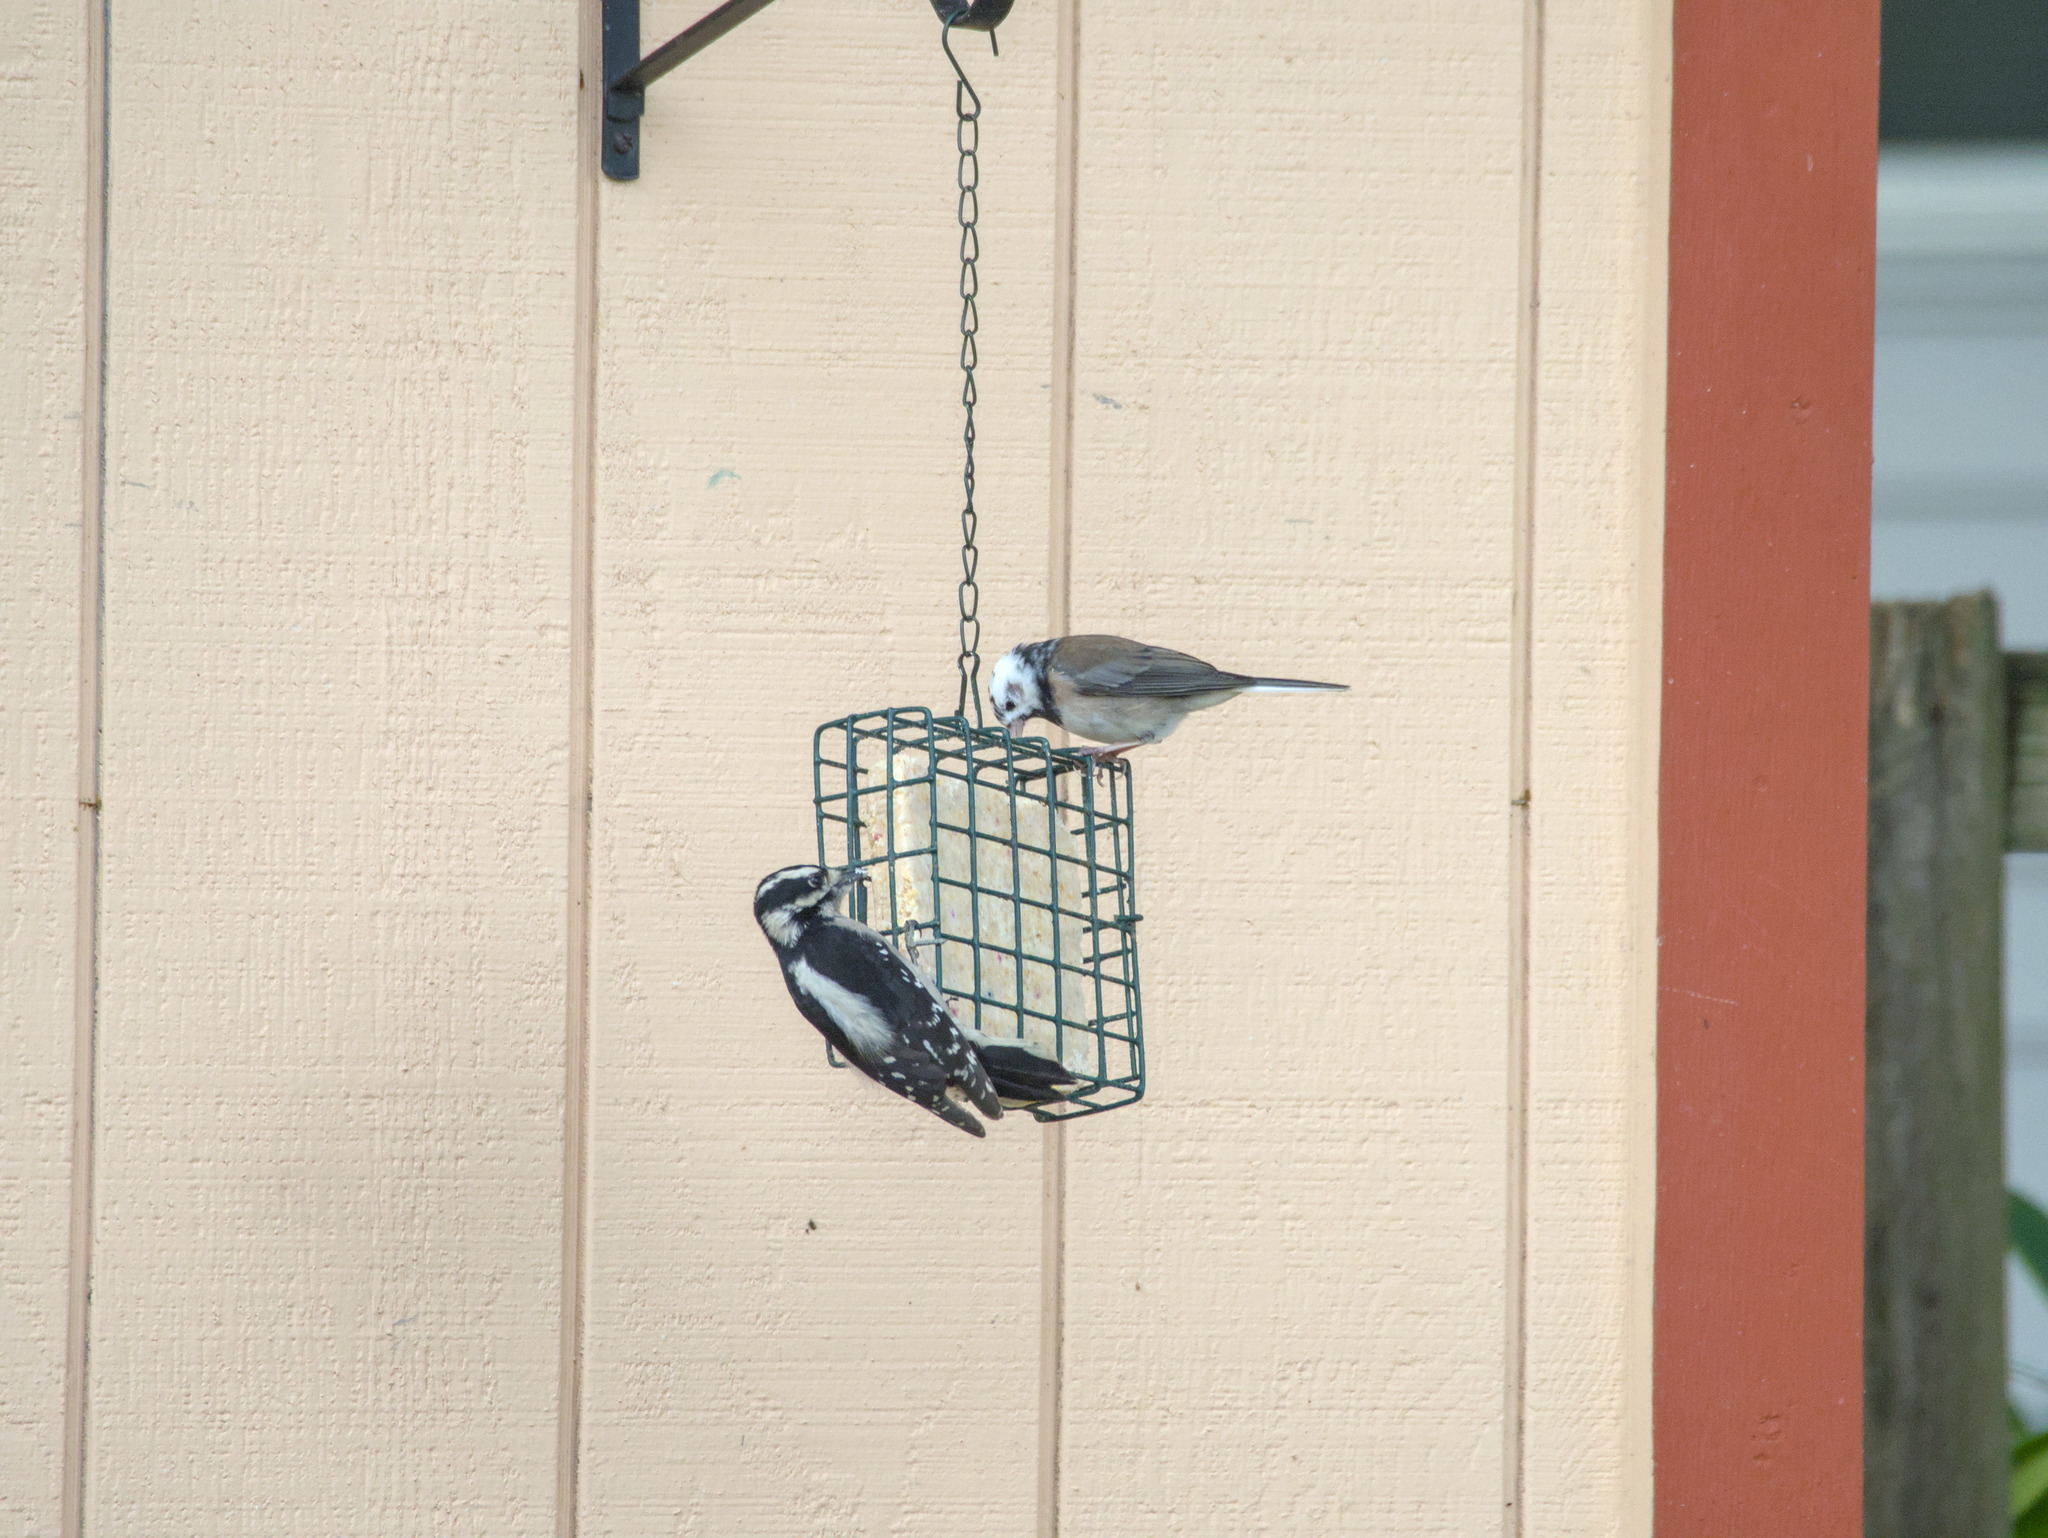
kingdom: Animalia
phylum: Chordata
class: Aves
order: Passeriformes
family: Passerellidae
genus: Junco
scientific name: Junco hyemalis
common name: Dark-eyed junco
